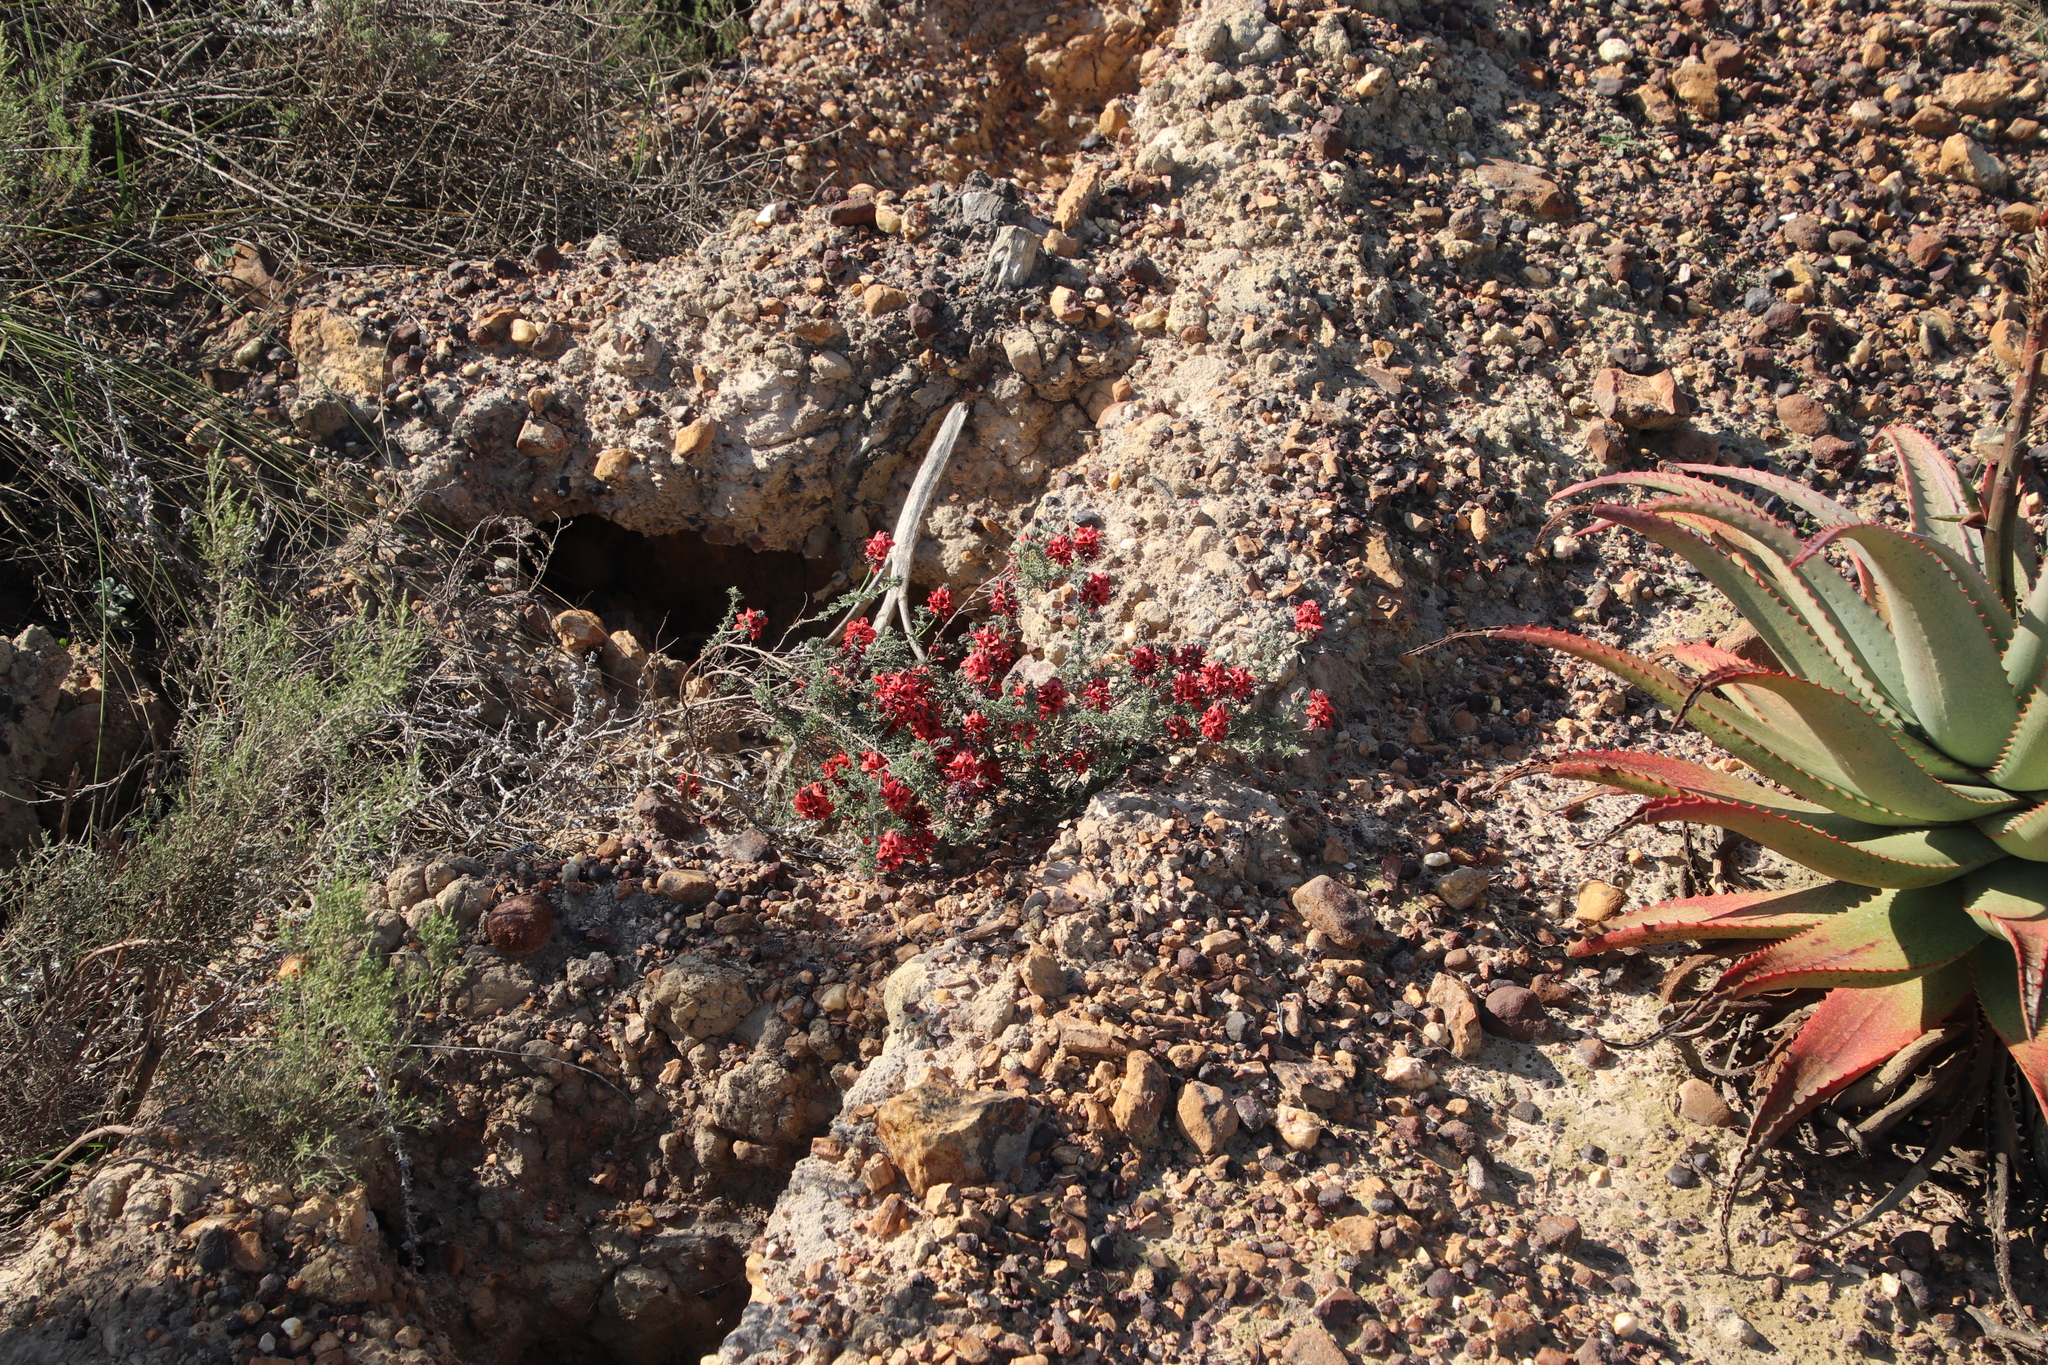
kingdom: Plantae
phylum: Tracheophyta
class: Magnoliopsida
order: Fabales
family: Fabaceae
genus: Indigofera
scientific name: Indigofera digitata
